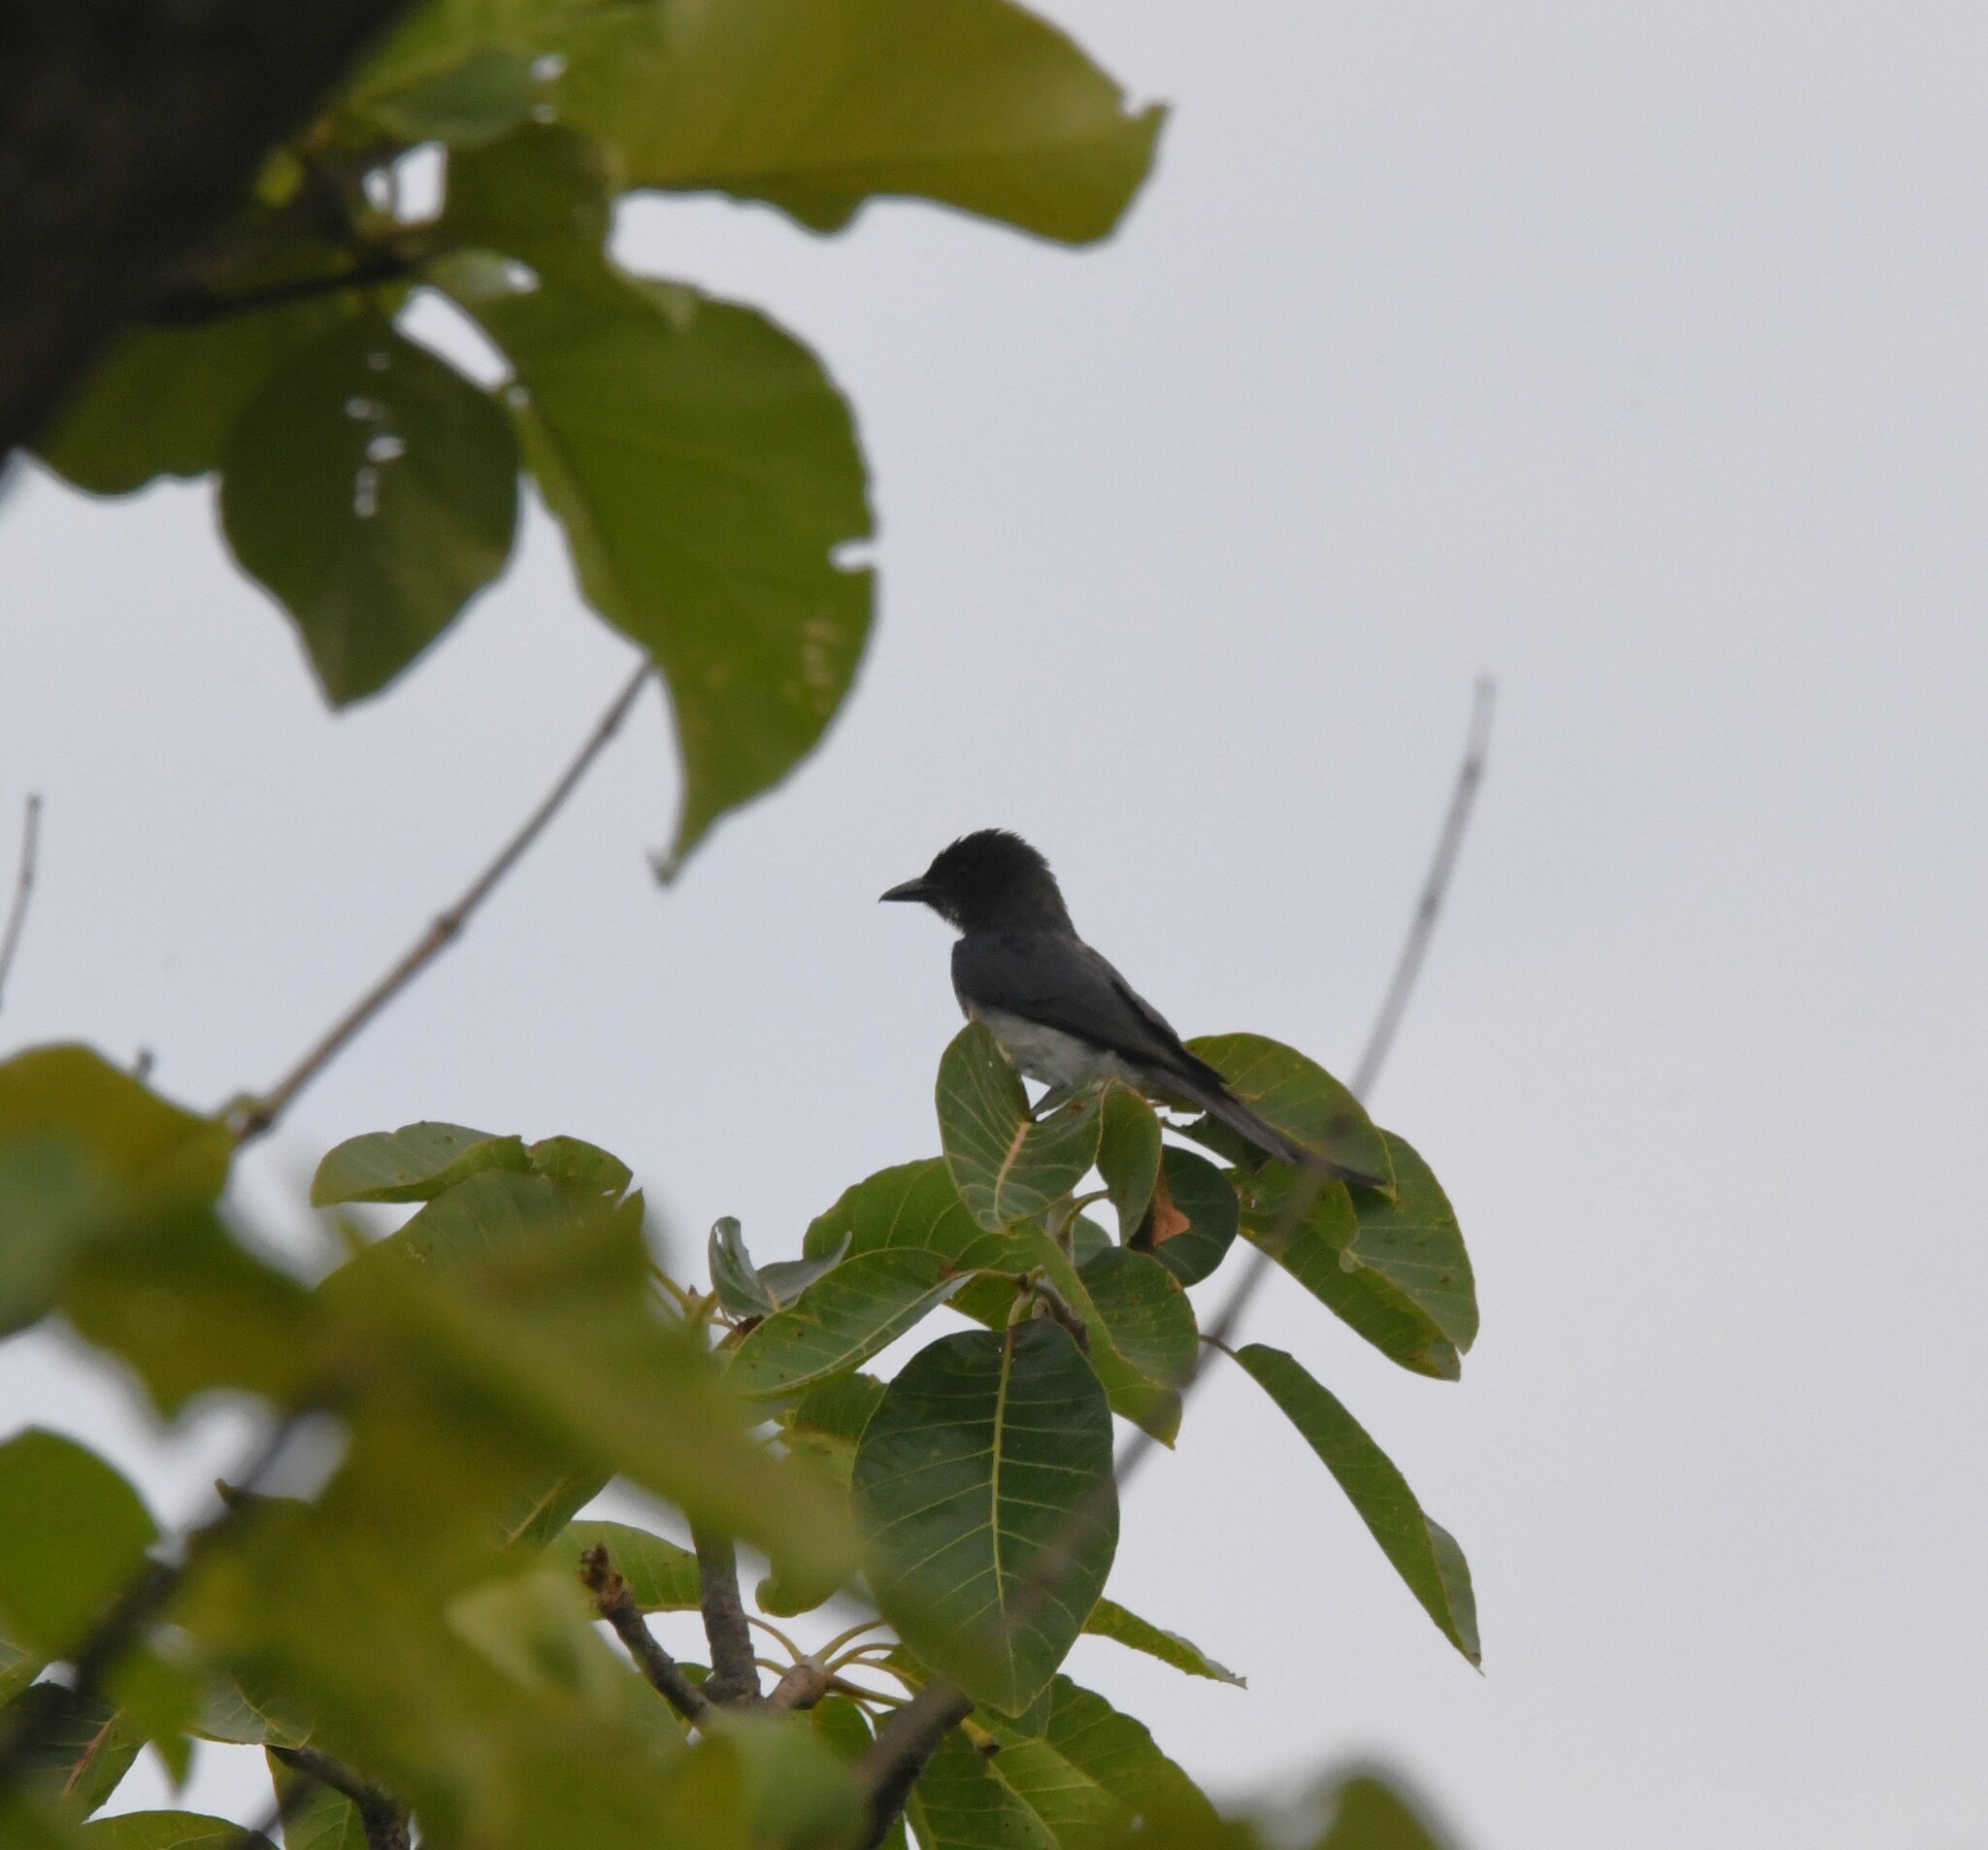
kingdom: Animalia
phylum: Chordata
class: Aves
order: Passeriformes
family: Dicruridae
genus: Dicrurus
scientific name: Dicrurus caerulescens
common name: White-bellied drongo
